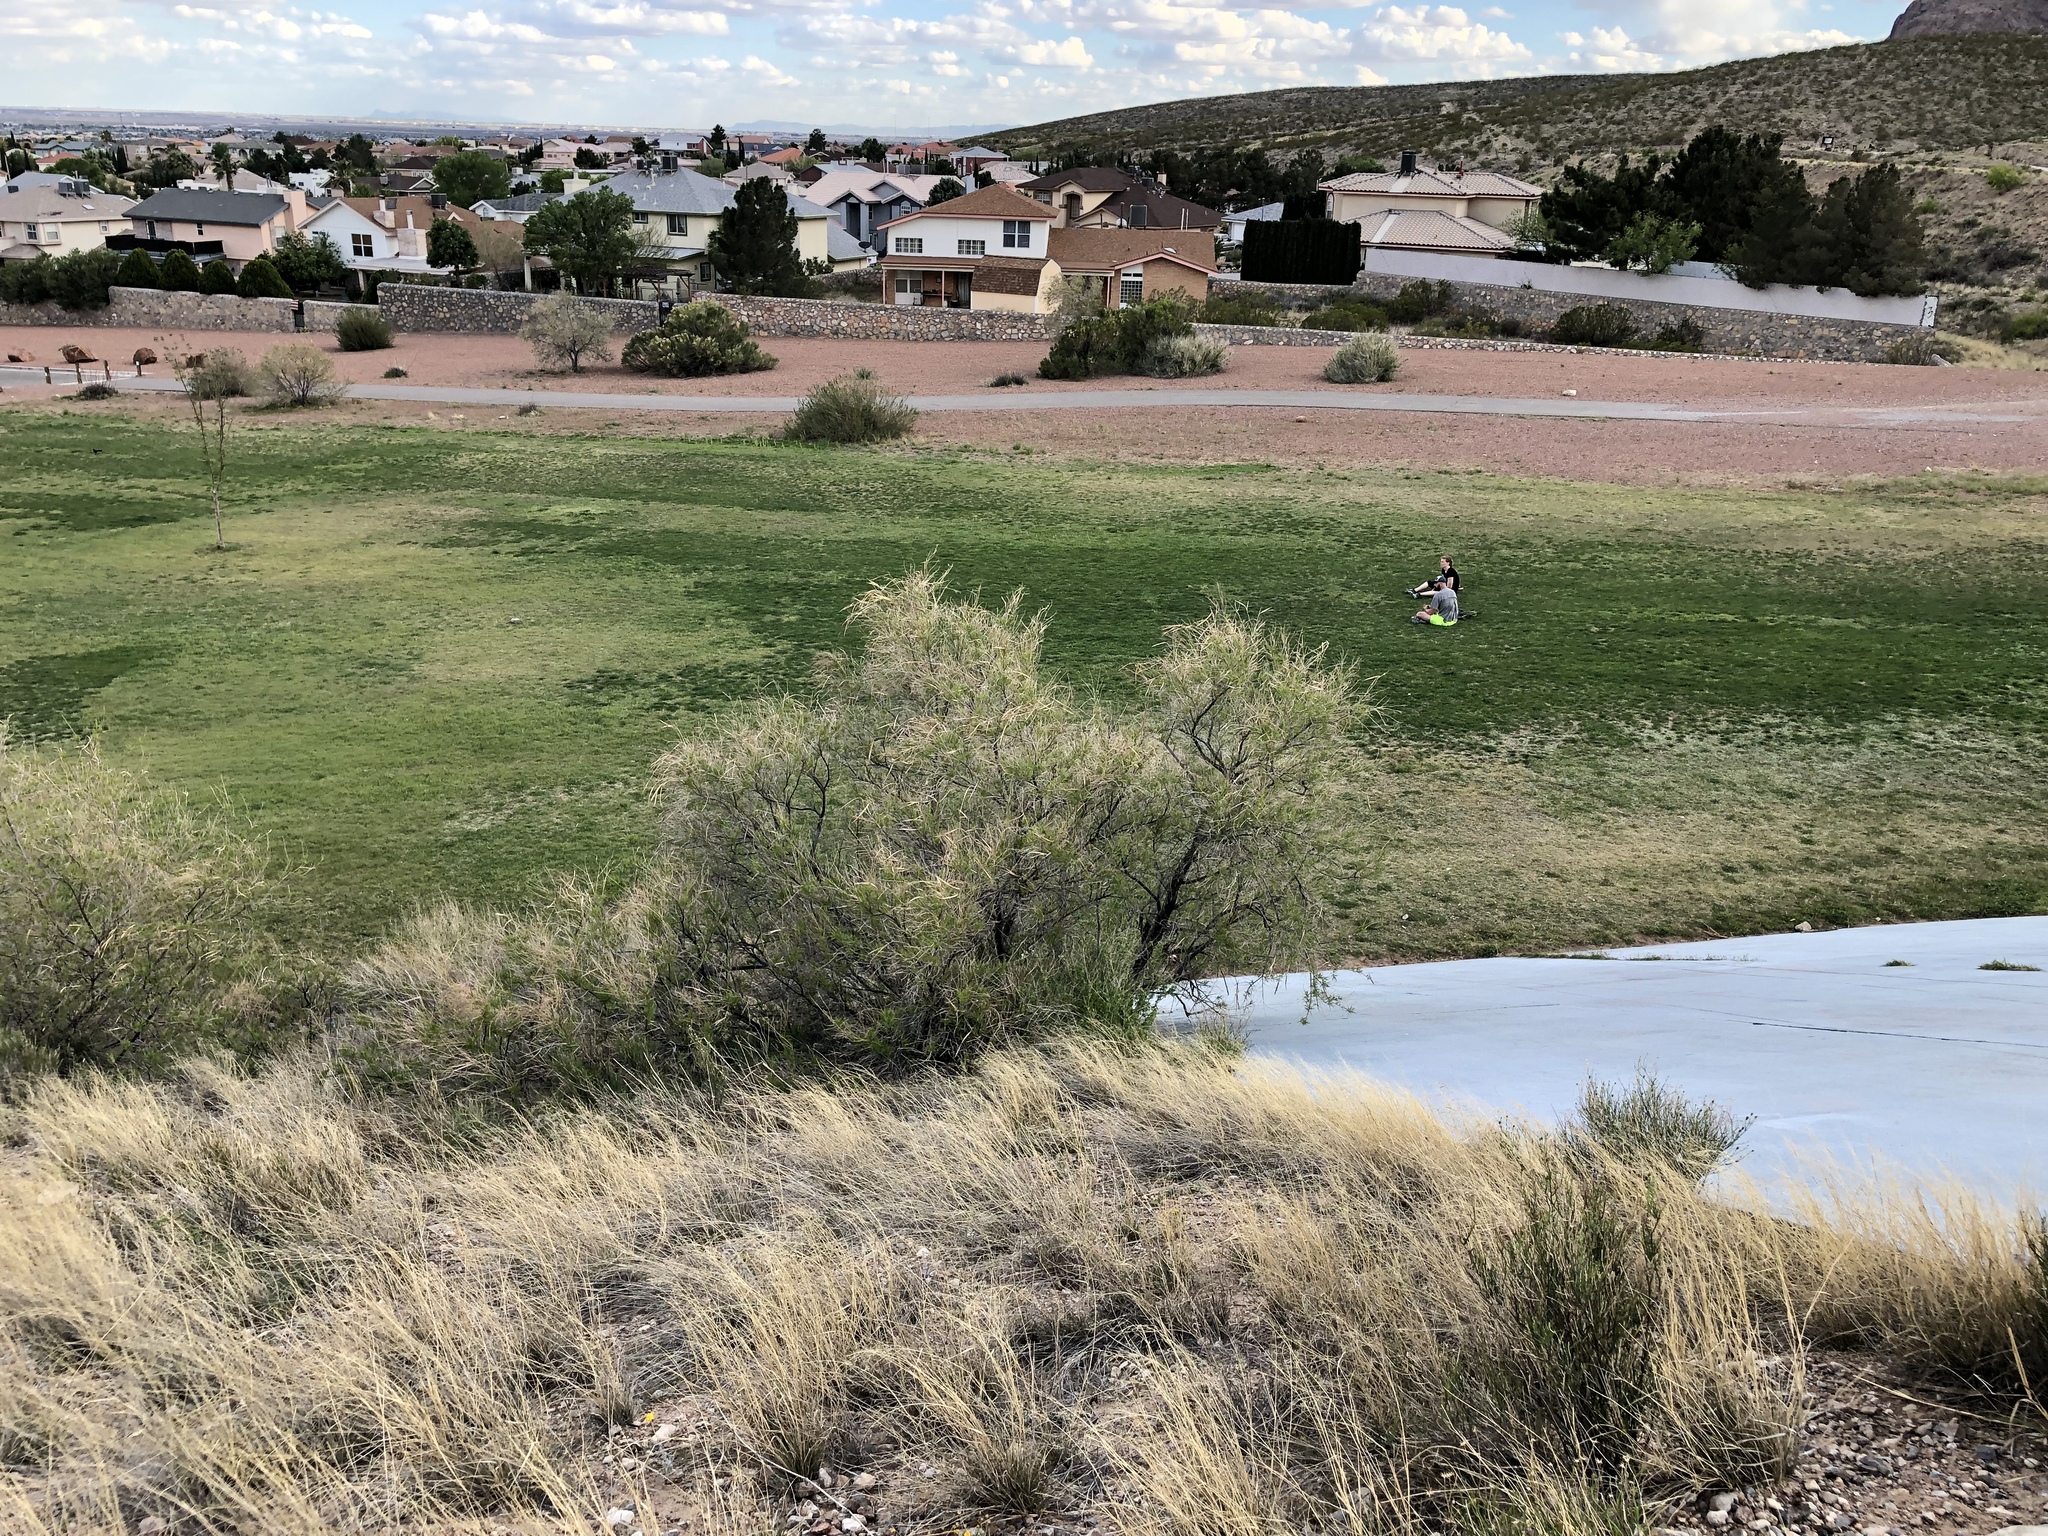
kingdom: Plantae
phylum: Tracheophyta
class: Magnoliopsida
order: Lamiales
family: Bignoniaceae
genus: Chilopsis
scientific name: Chilopsis linearis
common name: Desert-willow
